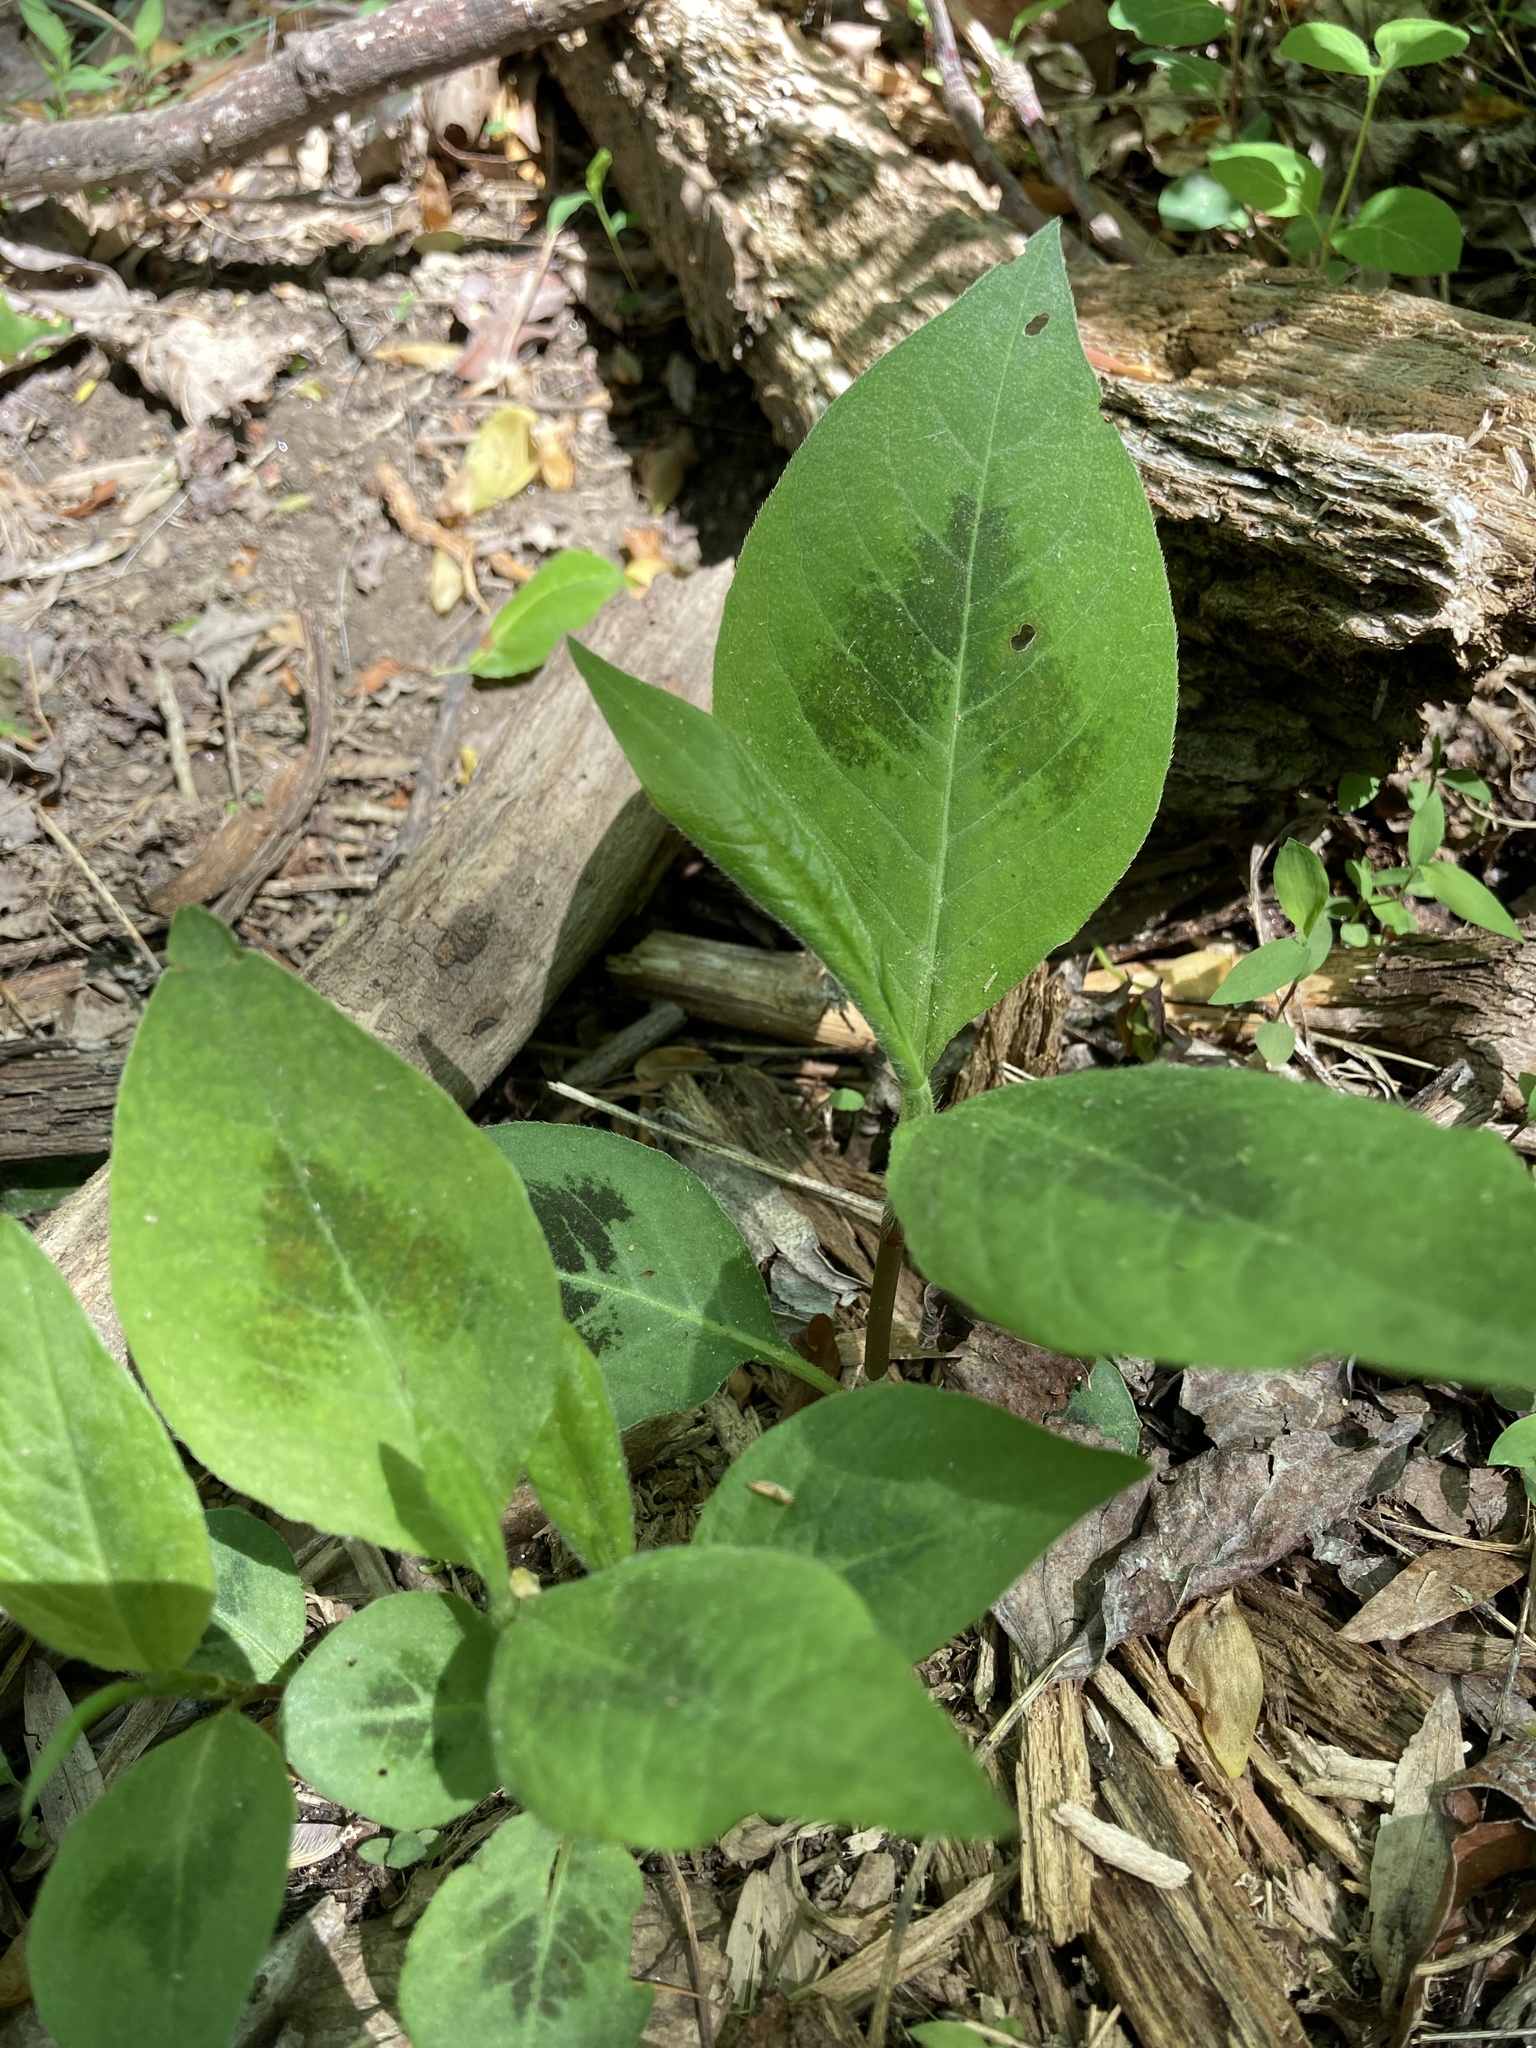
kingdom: Plantae
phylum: Tracheophyta
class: Magnoliopsida
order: Caryophyllales
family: Polygonaceae
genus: Persicaria
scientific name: Persicaria virginiana
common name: Jumpseed
